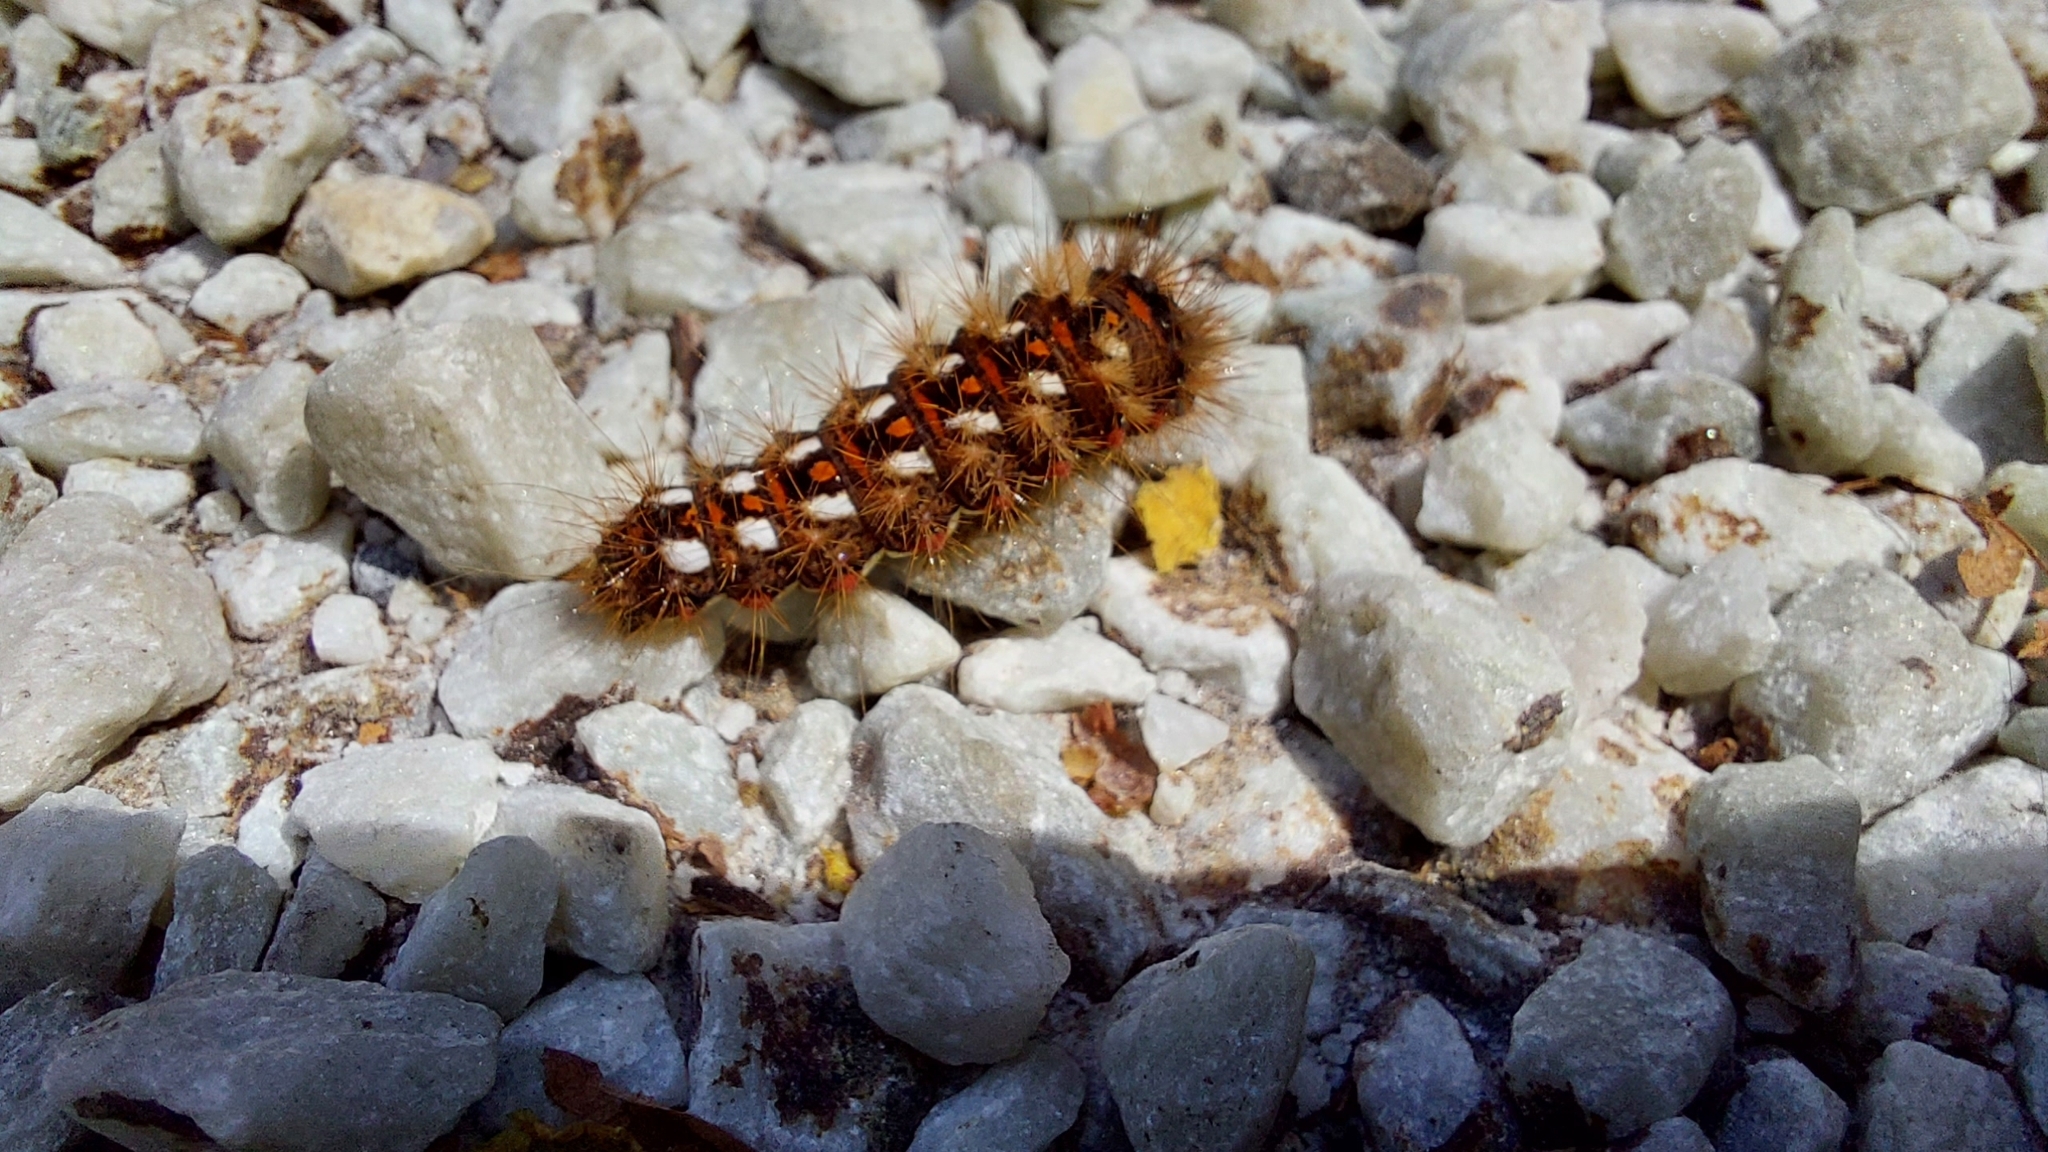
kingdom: Animalia
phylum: Arthropoda
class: Insecta
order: Lepidoptera
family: Noctuidae
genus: Acronicta
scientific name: Acronicta rumicis
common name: Knot grass
